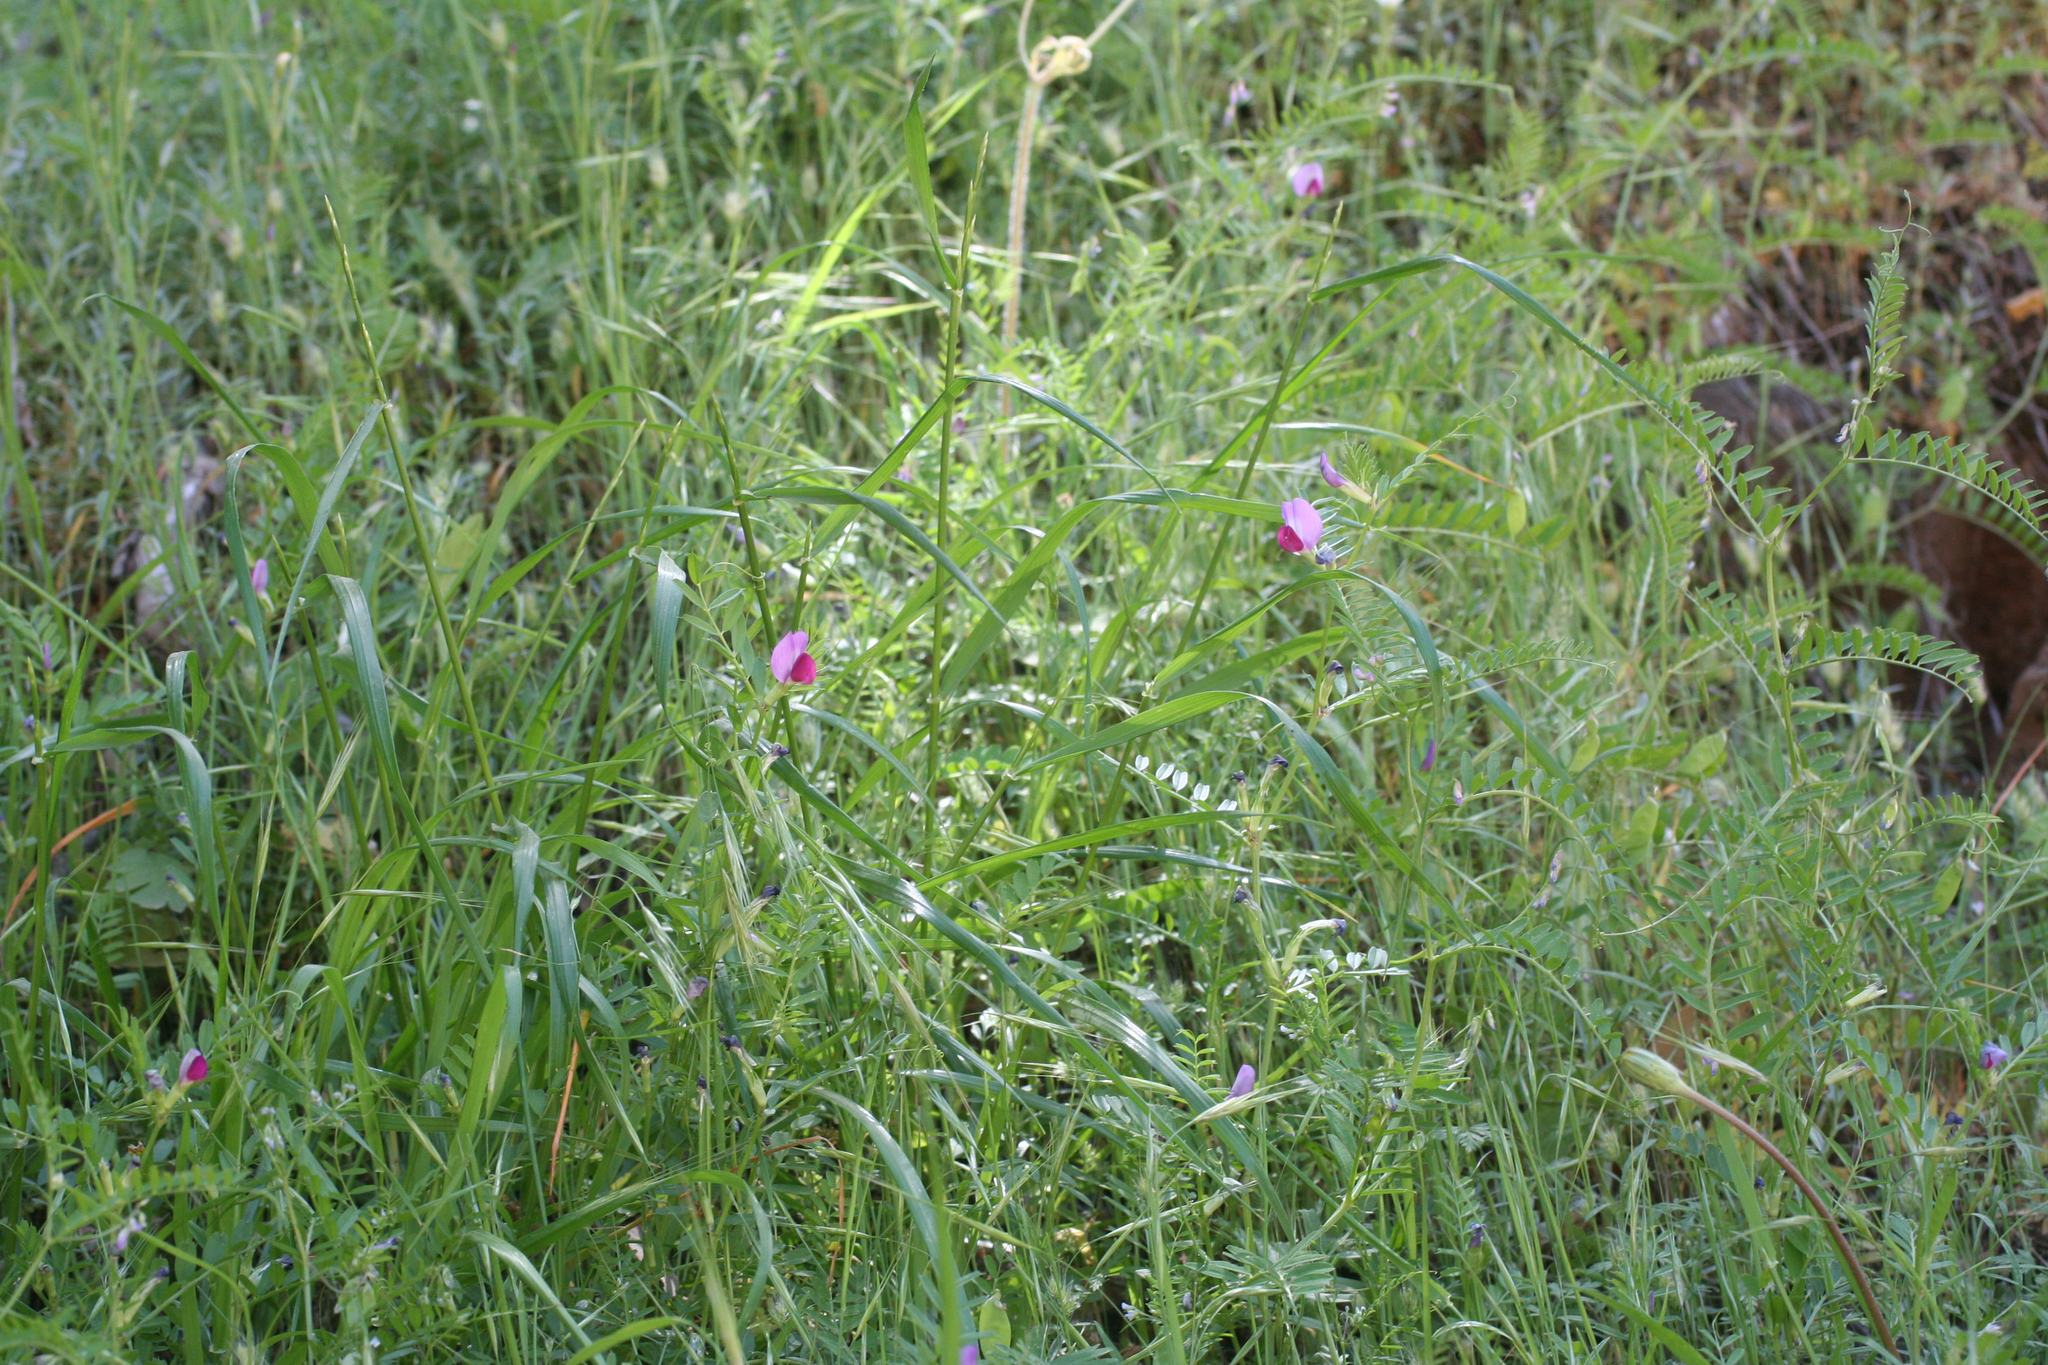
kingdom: Plantae
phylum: Tracheophyta
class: Magnoliopsida
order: Fabales
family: Fabaceae
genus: Vicia
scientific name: Vicia sativa
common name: Garden vetch
